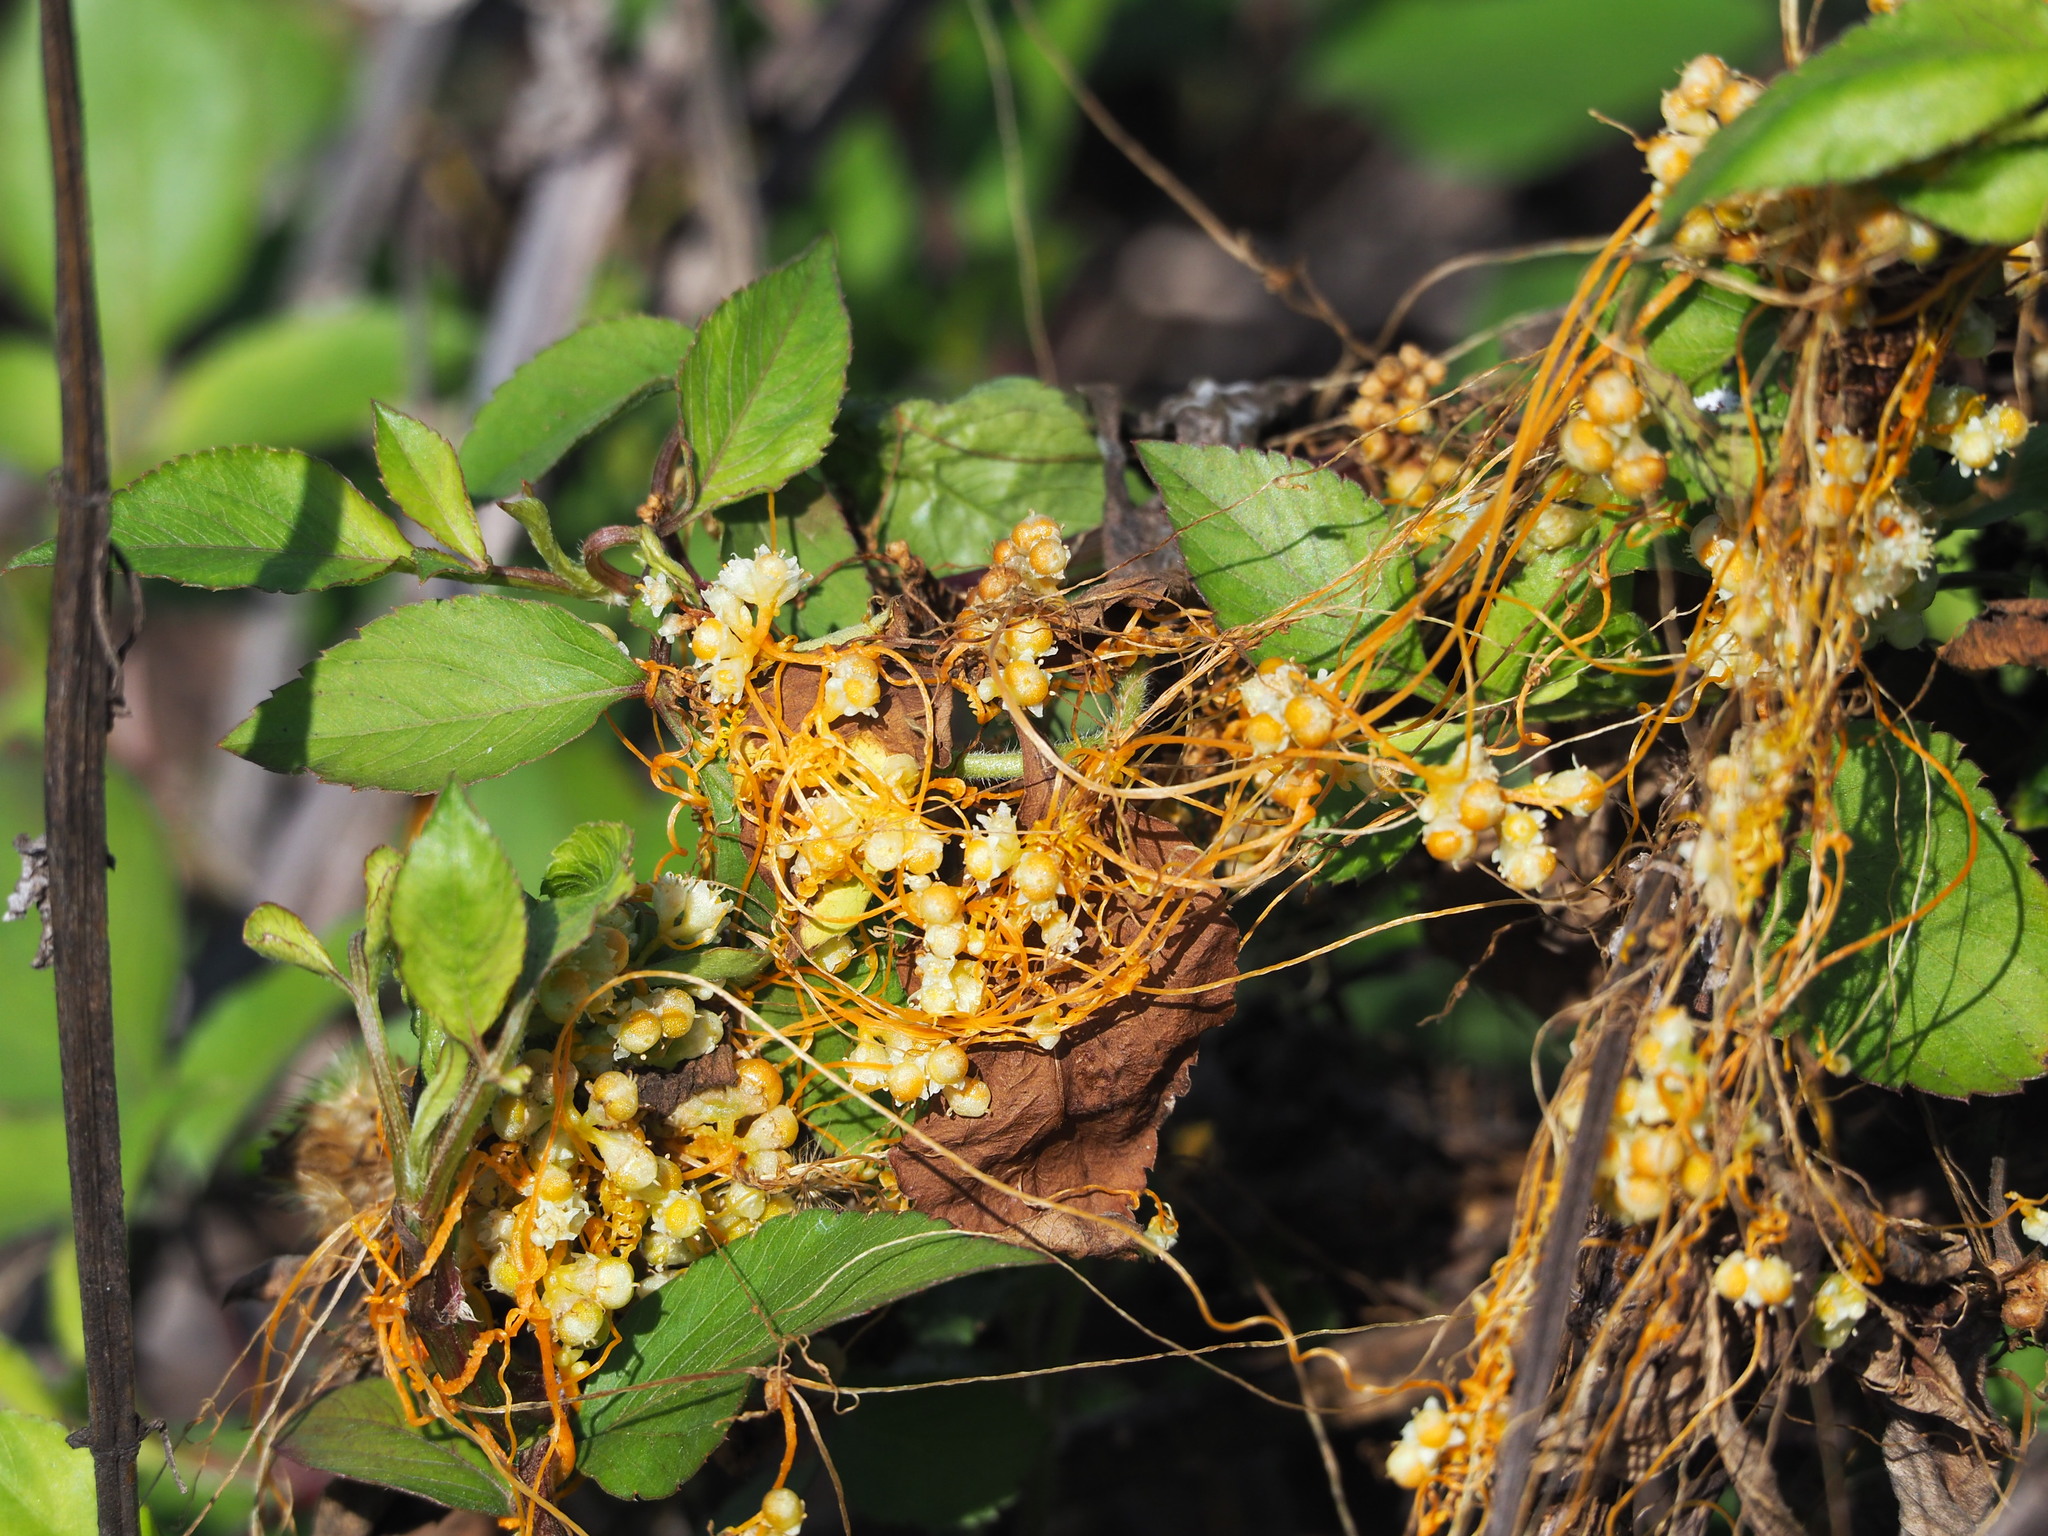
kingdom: Plantae
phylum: Tracheophyta
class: Magnoliopsida
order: Solanales
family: Convolvulaceae
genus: Cuscuta
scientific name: Cuscuta campestris
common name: Yellow dodder
